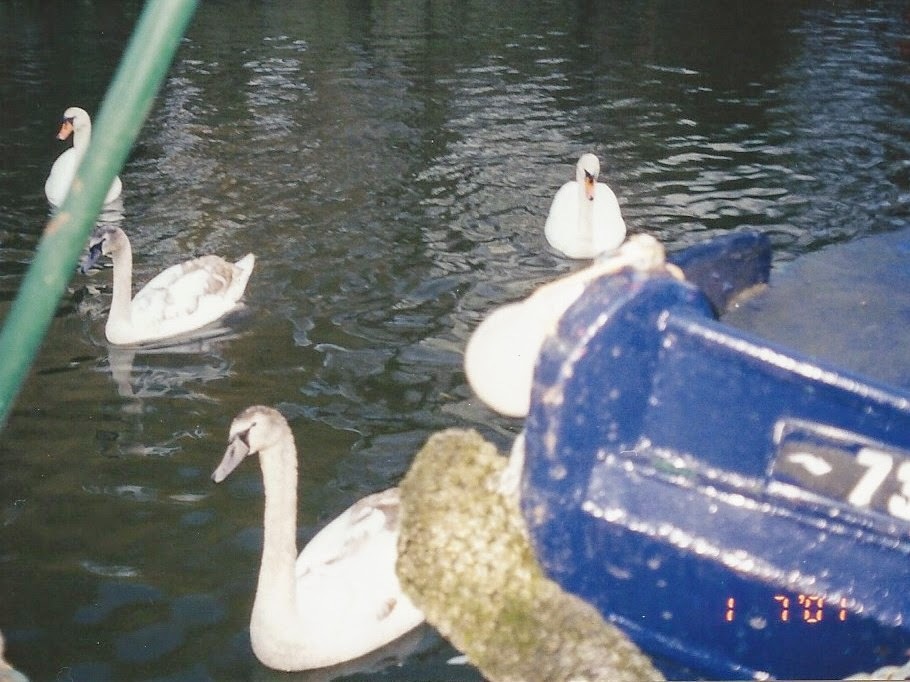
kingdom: Animalia
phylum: Chordata
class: Aves
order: Anseriformes
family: Anatidae
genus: Cygnus
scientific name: Cygnus olor
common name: Mute swan
